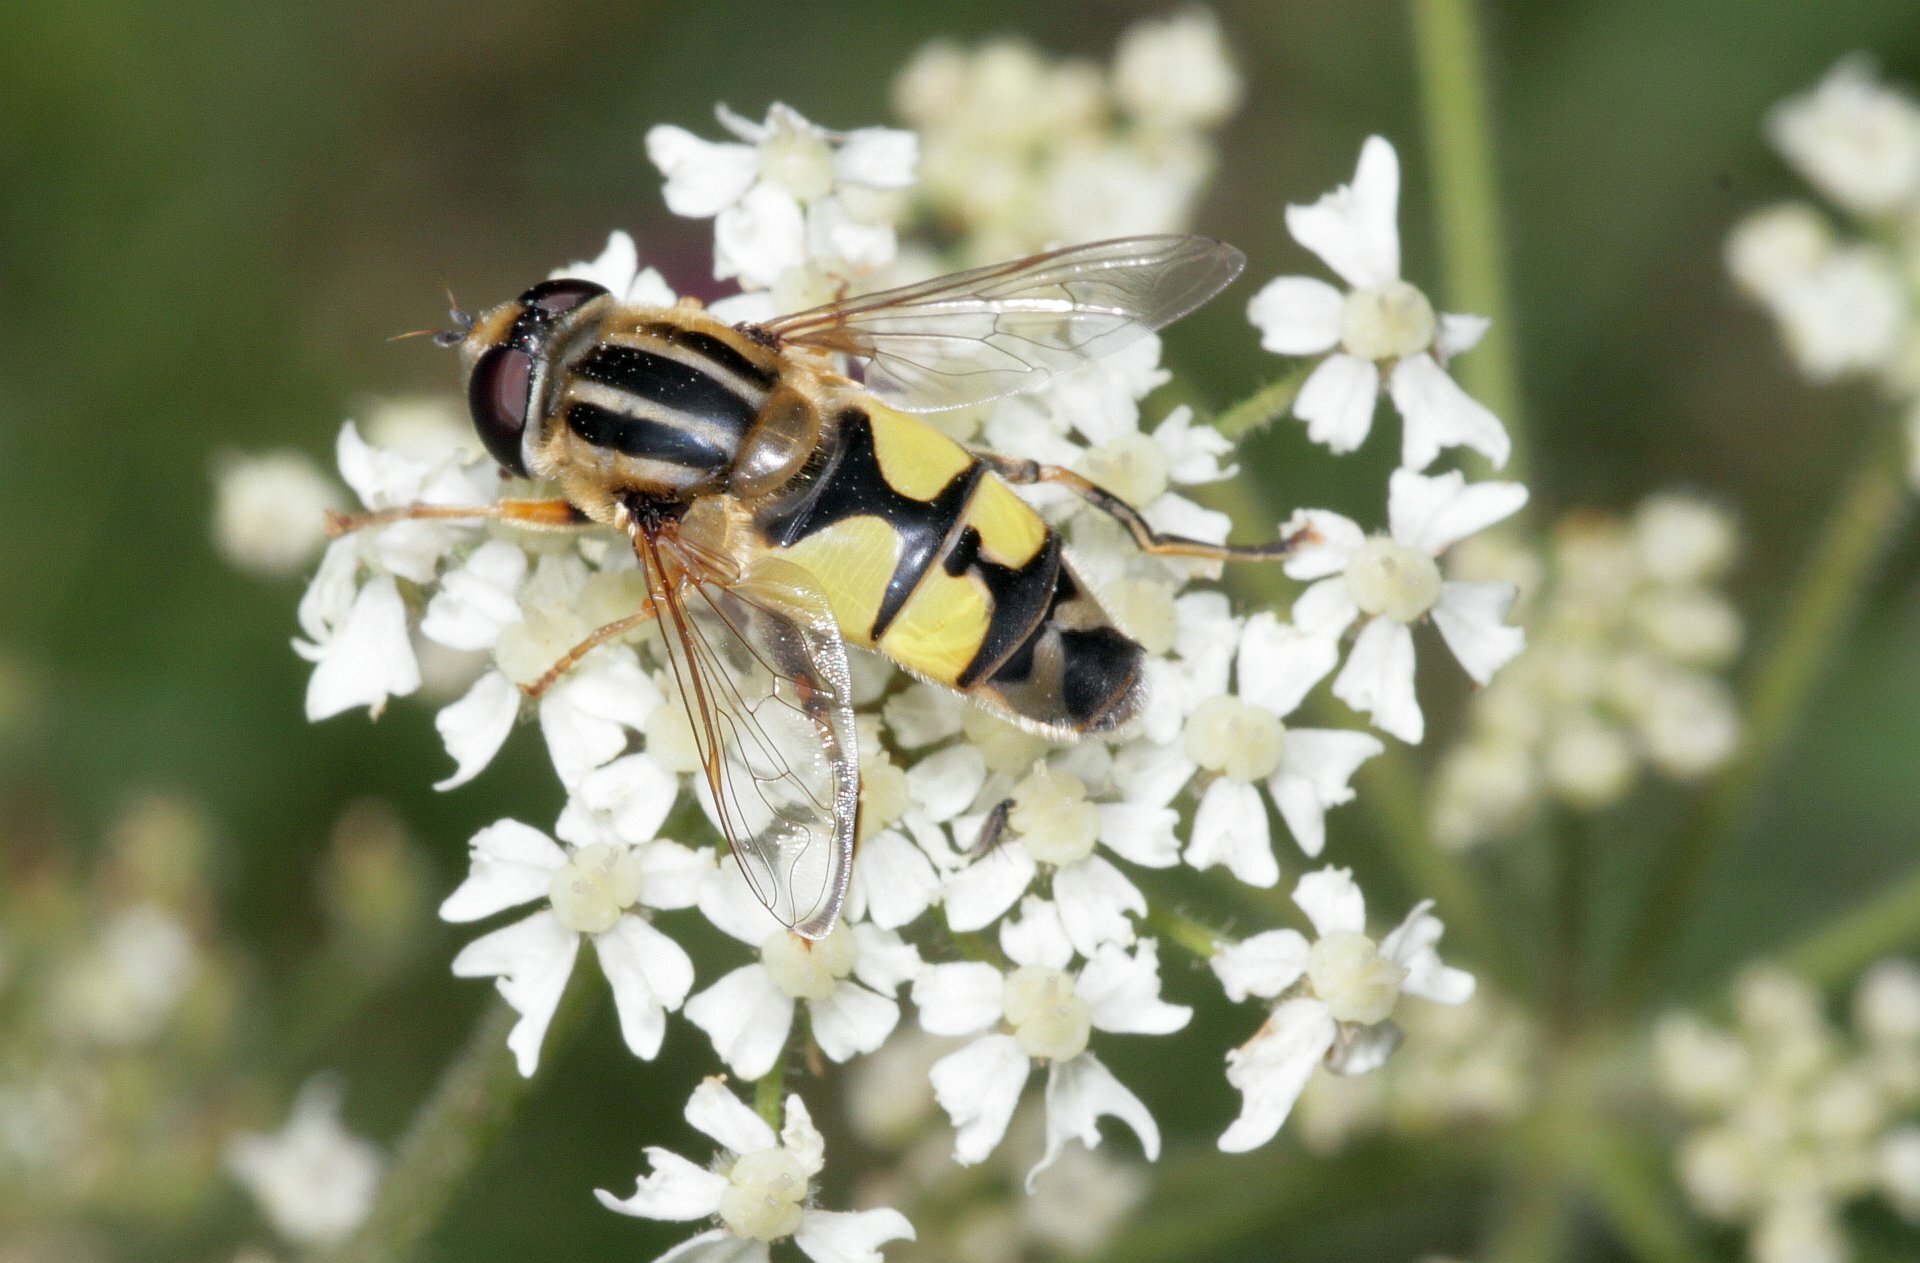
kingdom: Animalia
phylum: Arthropoda
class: Insecta
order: Diptera
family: Syrphidae
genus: Helophilus
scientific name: Helophilus trivittatus
